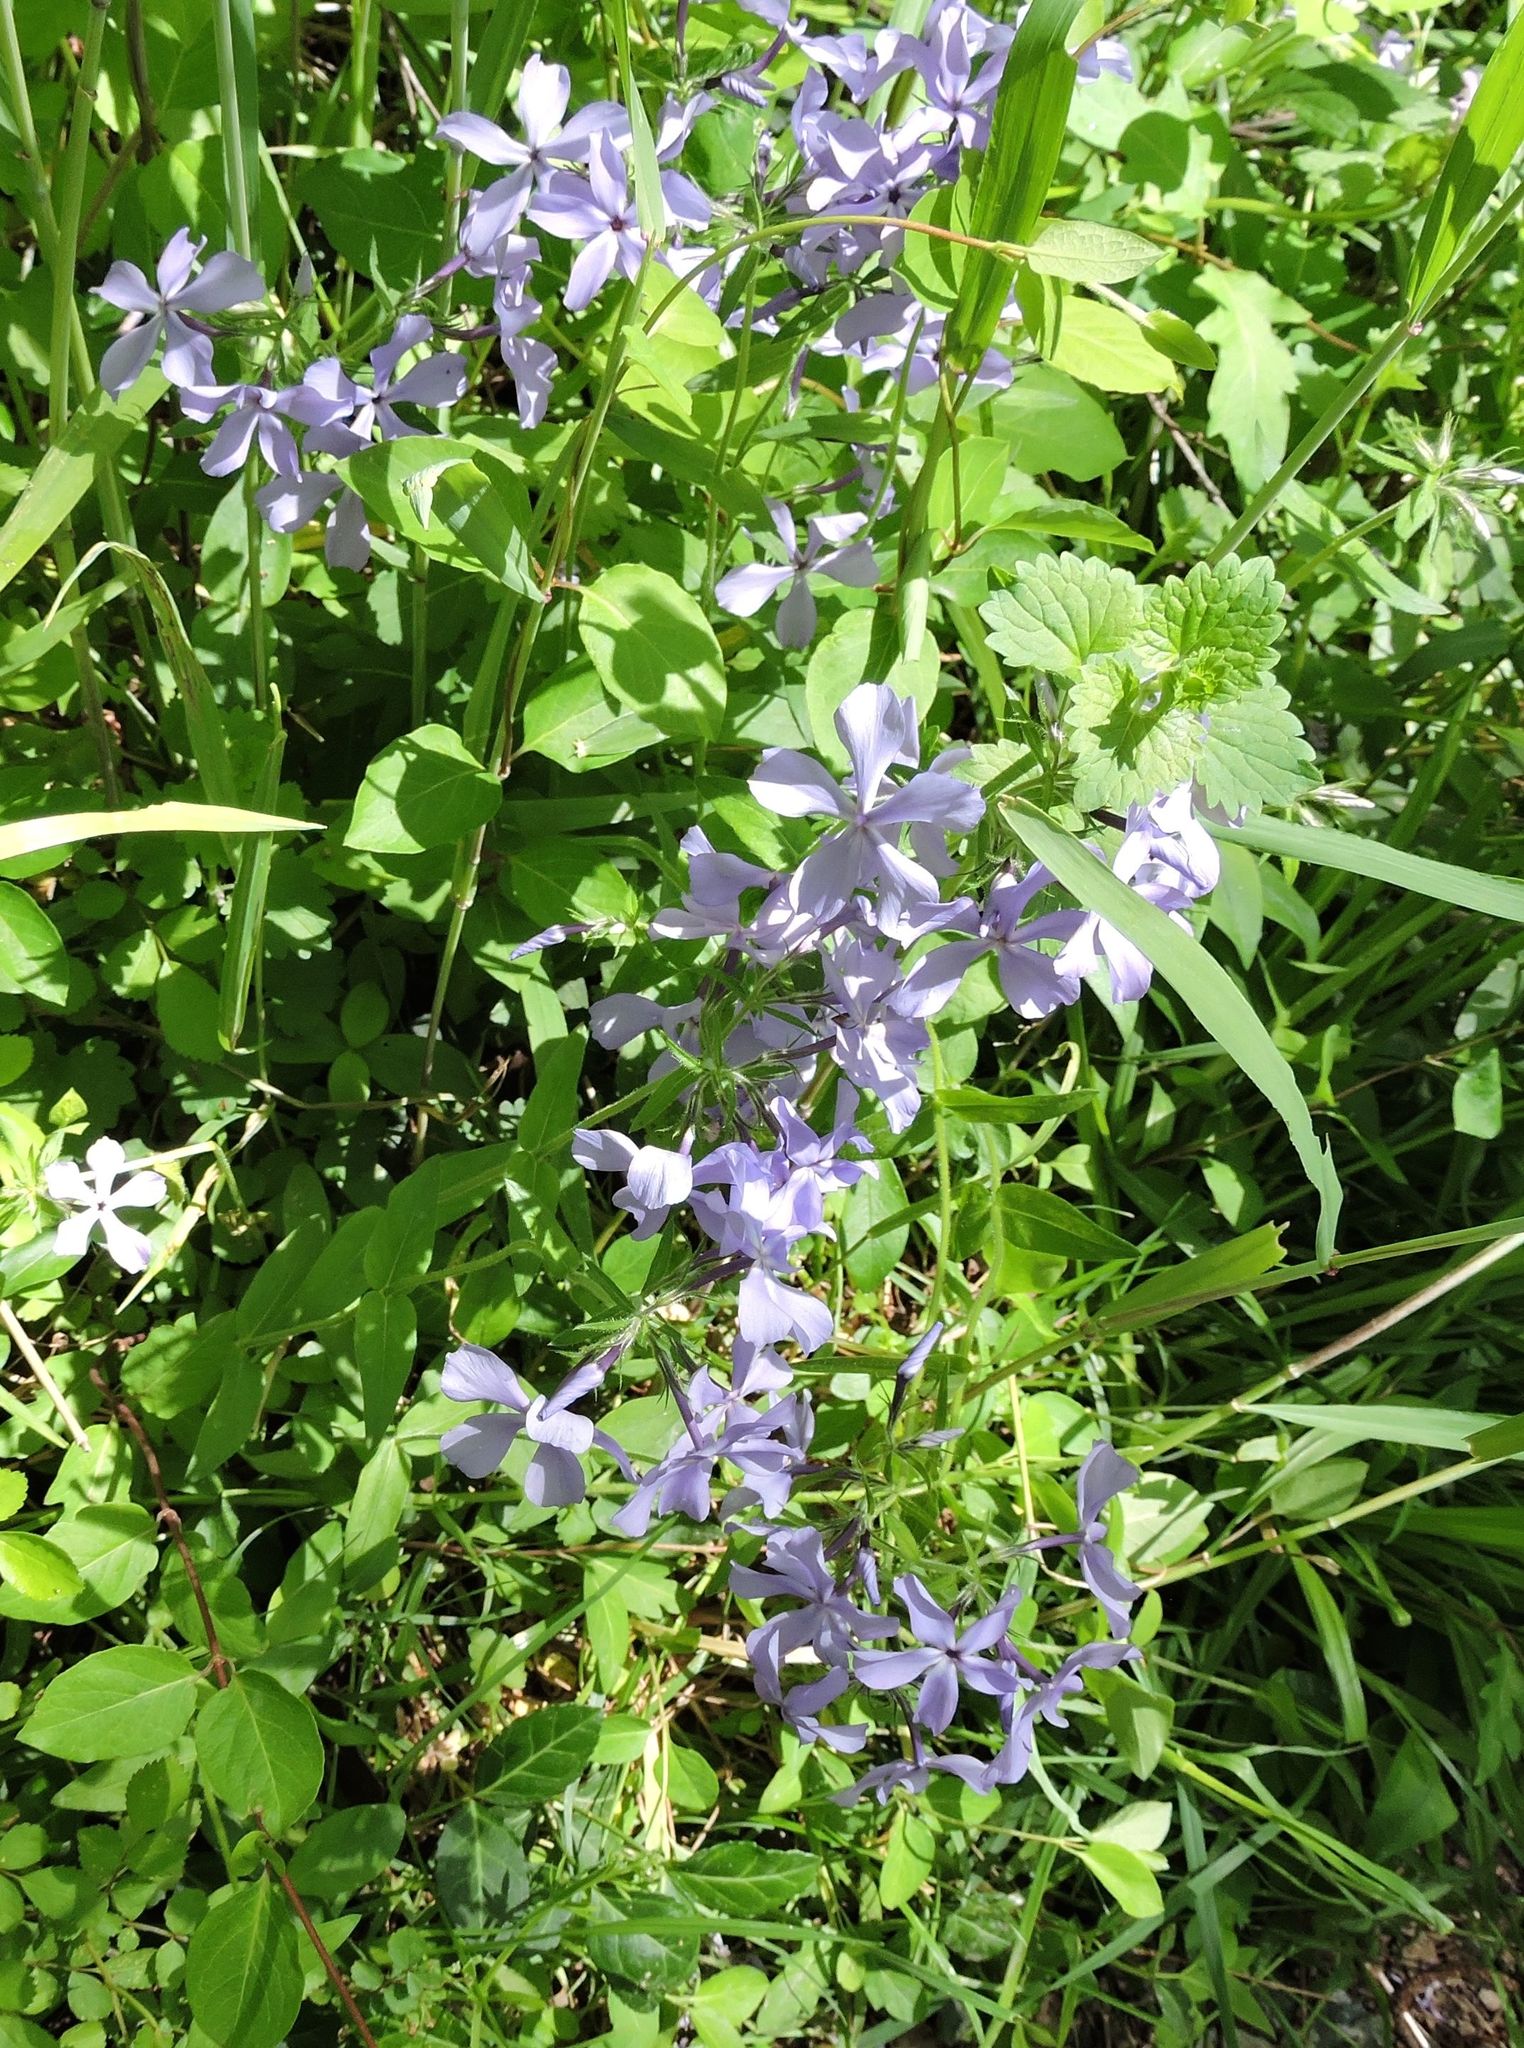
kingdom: Plantae
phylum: Tracheophyta
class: Magnoliopsida
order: Ericales
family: Polemoniaceae
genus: Phlox
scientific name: Phlox divaricata
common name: Blue phlox
